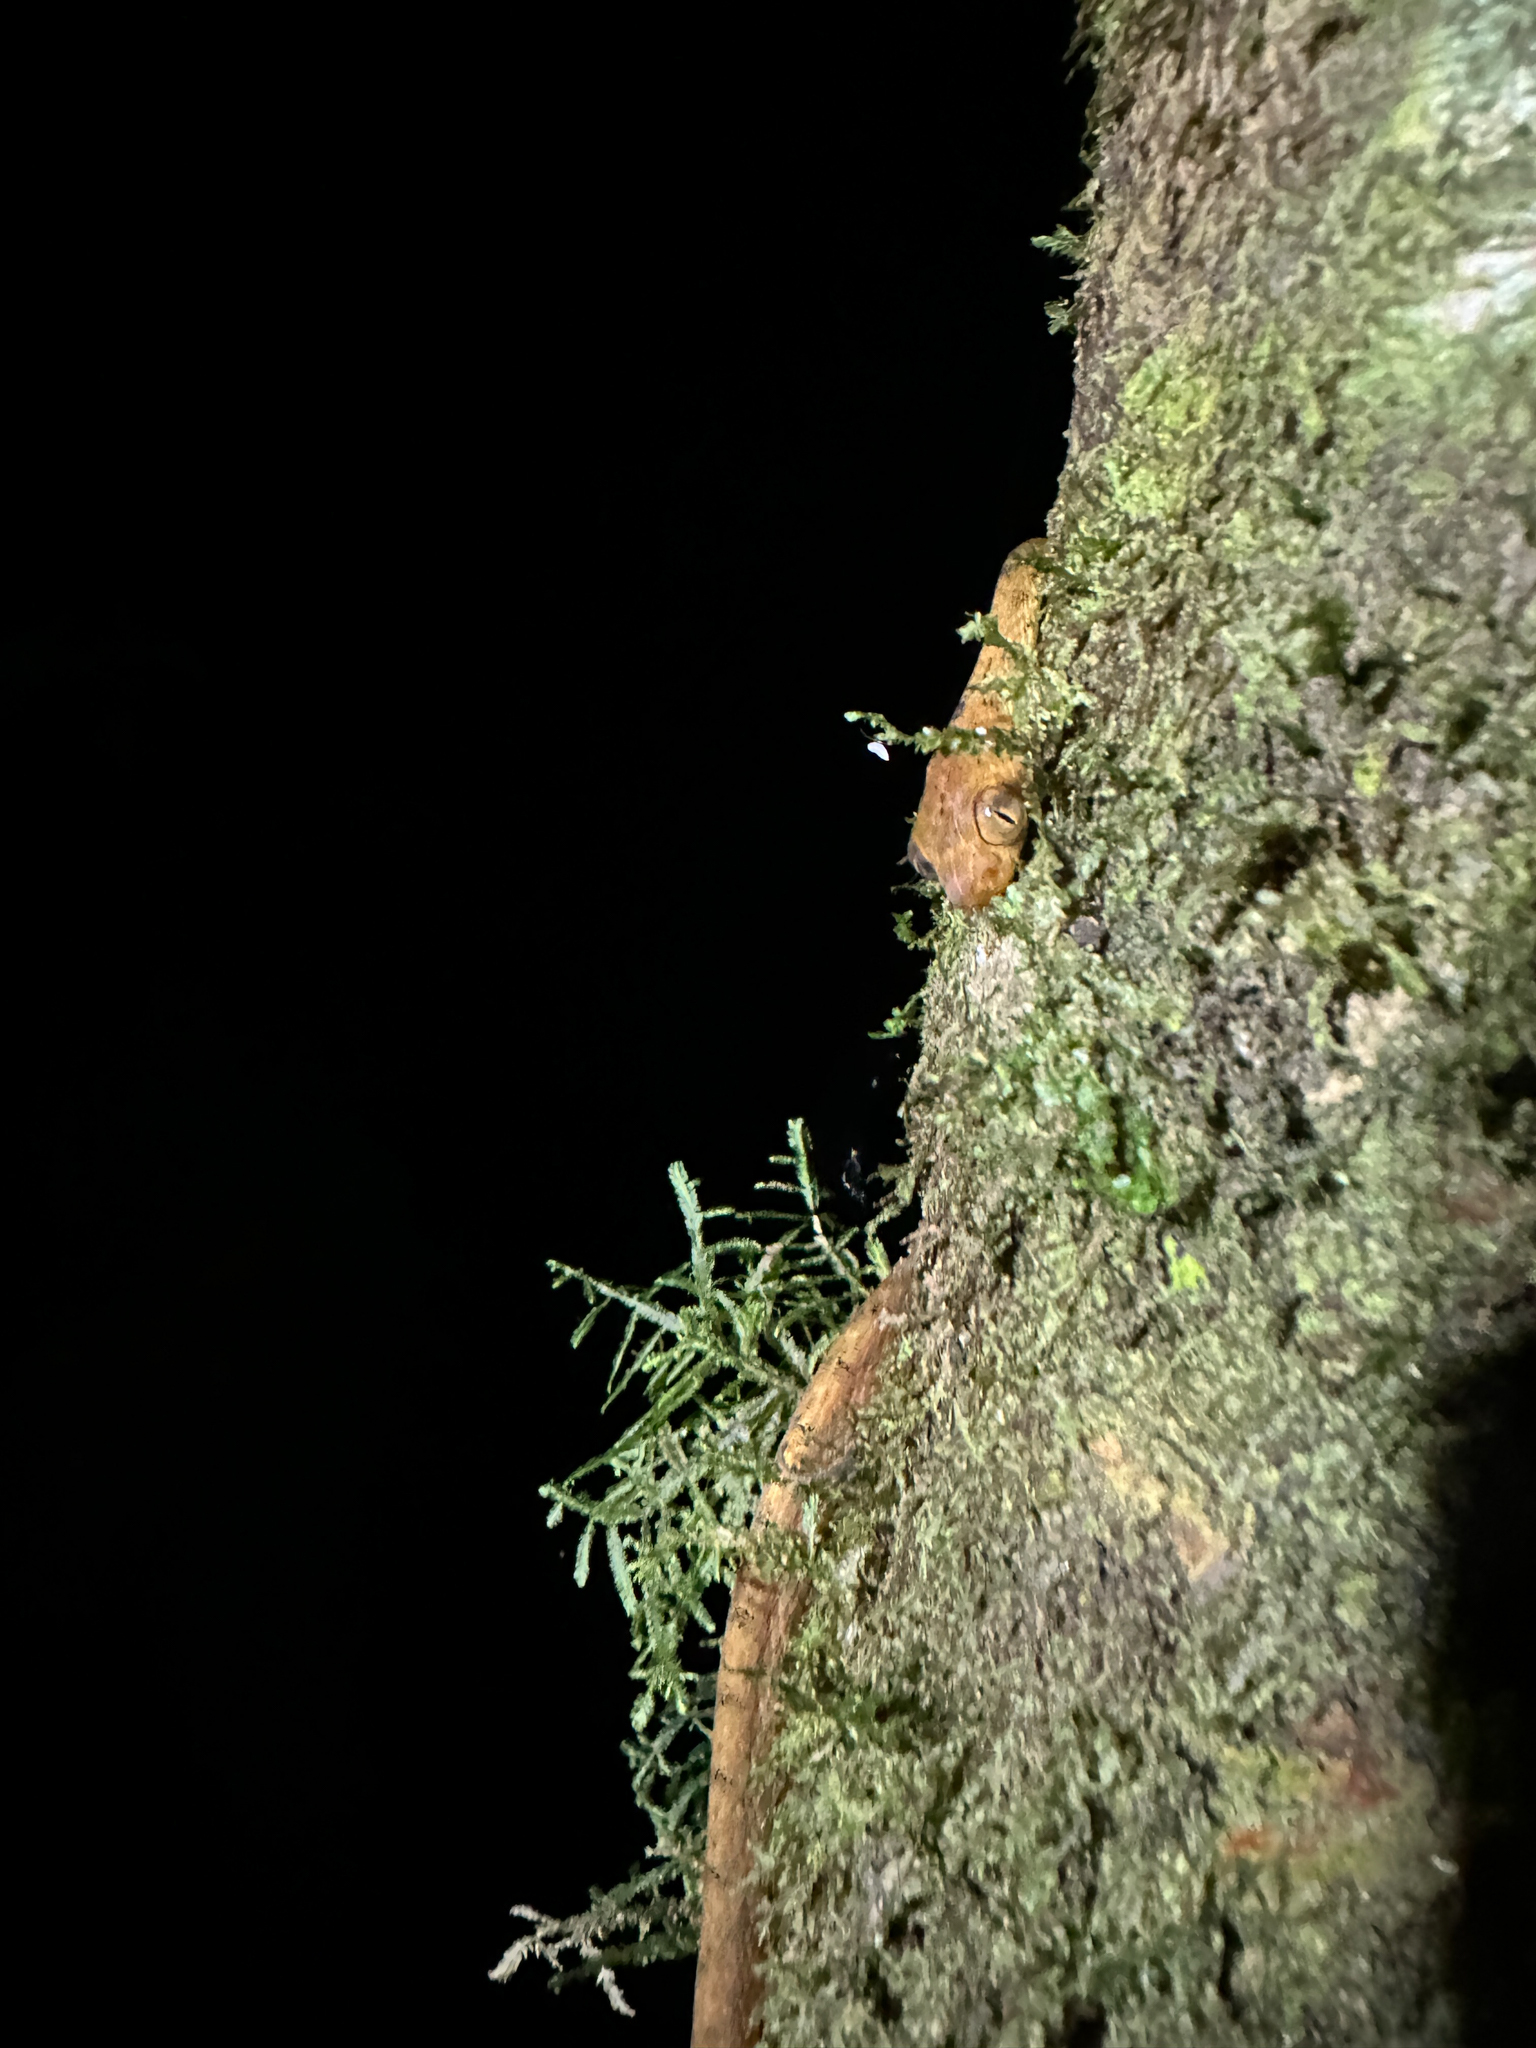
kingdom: Animalia
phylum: Chordata
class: Squamata
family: Colubridae
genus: Imantodes
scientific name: Imantodes inornatus
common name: Western tree snake
